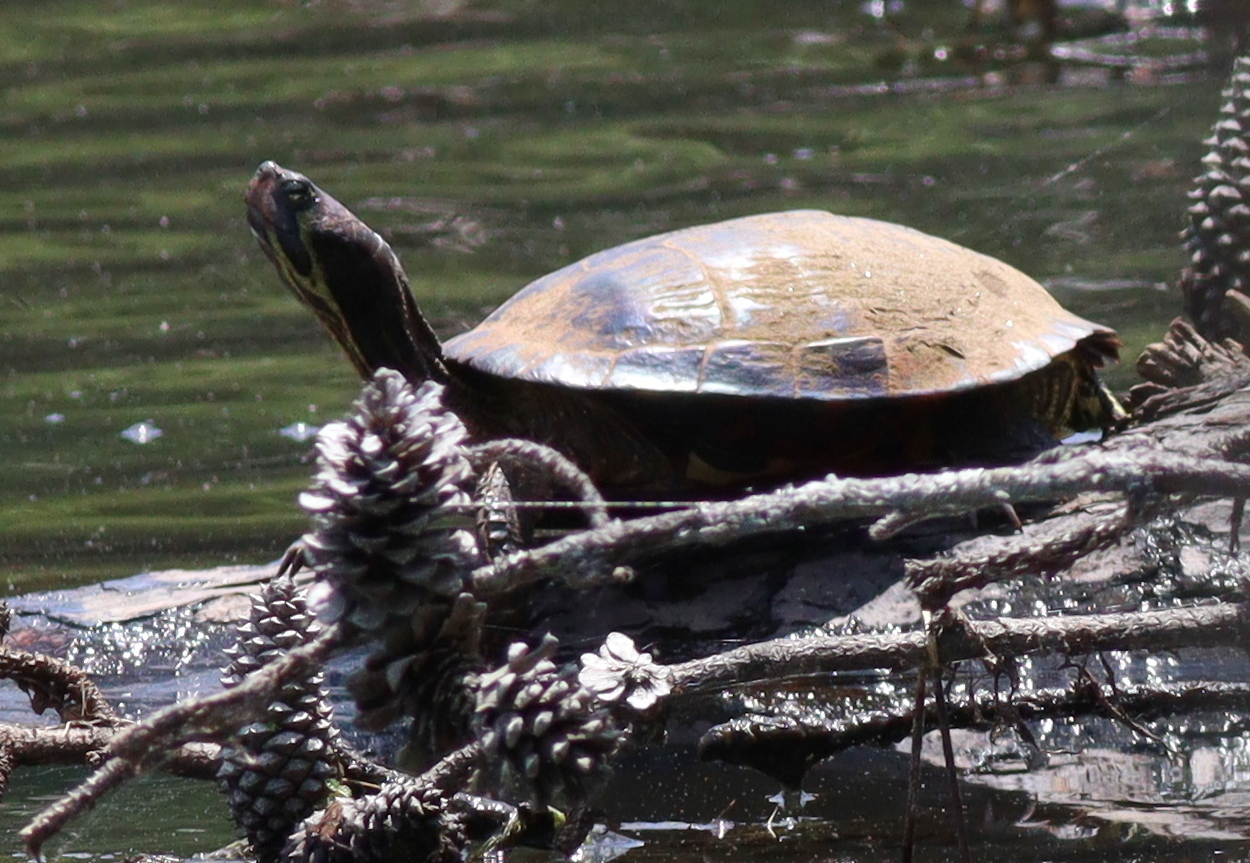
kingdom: Animalia
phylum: Chordata
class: Testudines
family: Emydidae
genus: Trachemys
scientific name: Trachemys scripta
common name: Slider
